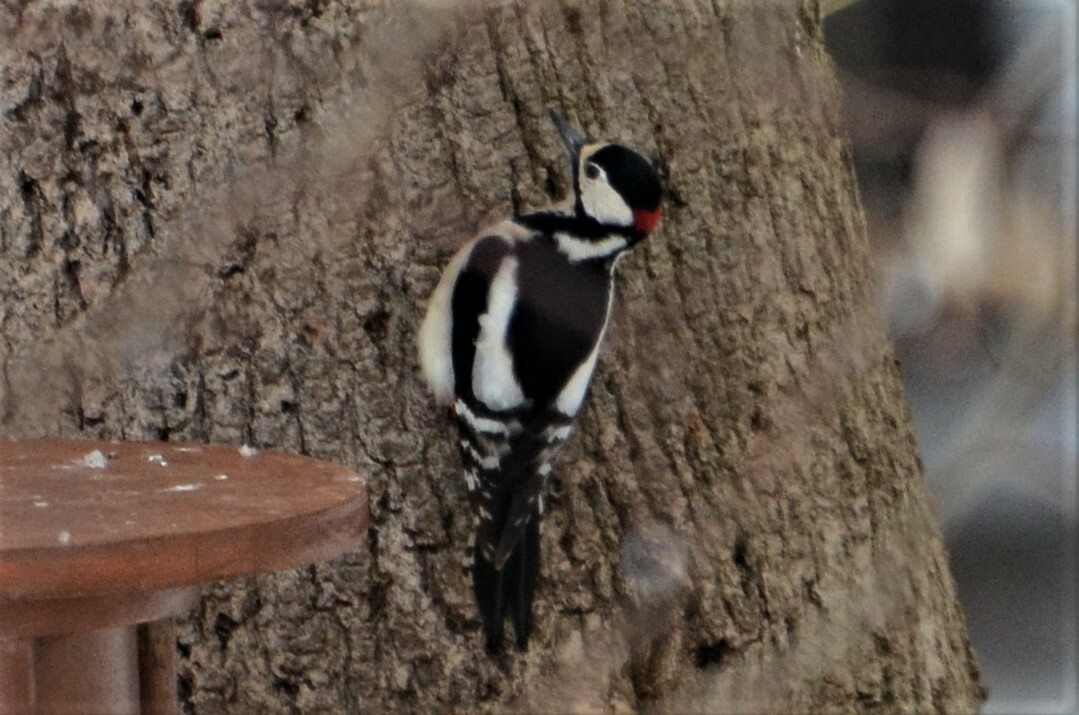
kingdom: Animalia
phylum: Chordata
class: Aves
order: Piciformes
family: Picidae
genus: Dendrocopos
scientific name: Dendrocopos major
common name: Great spotted woodpecker
